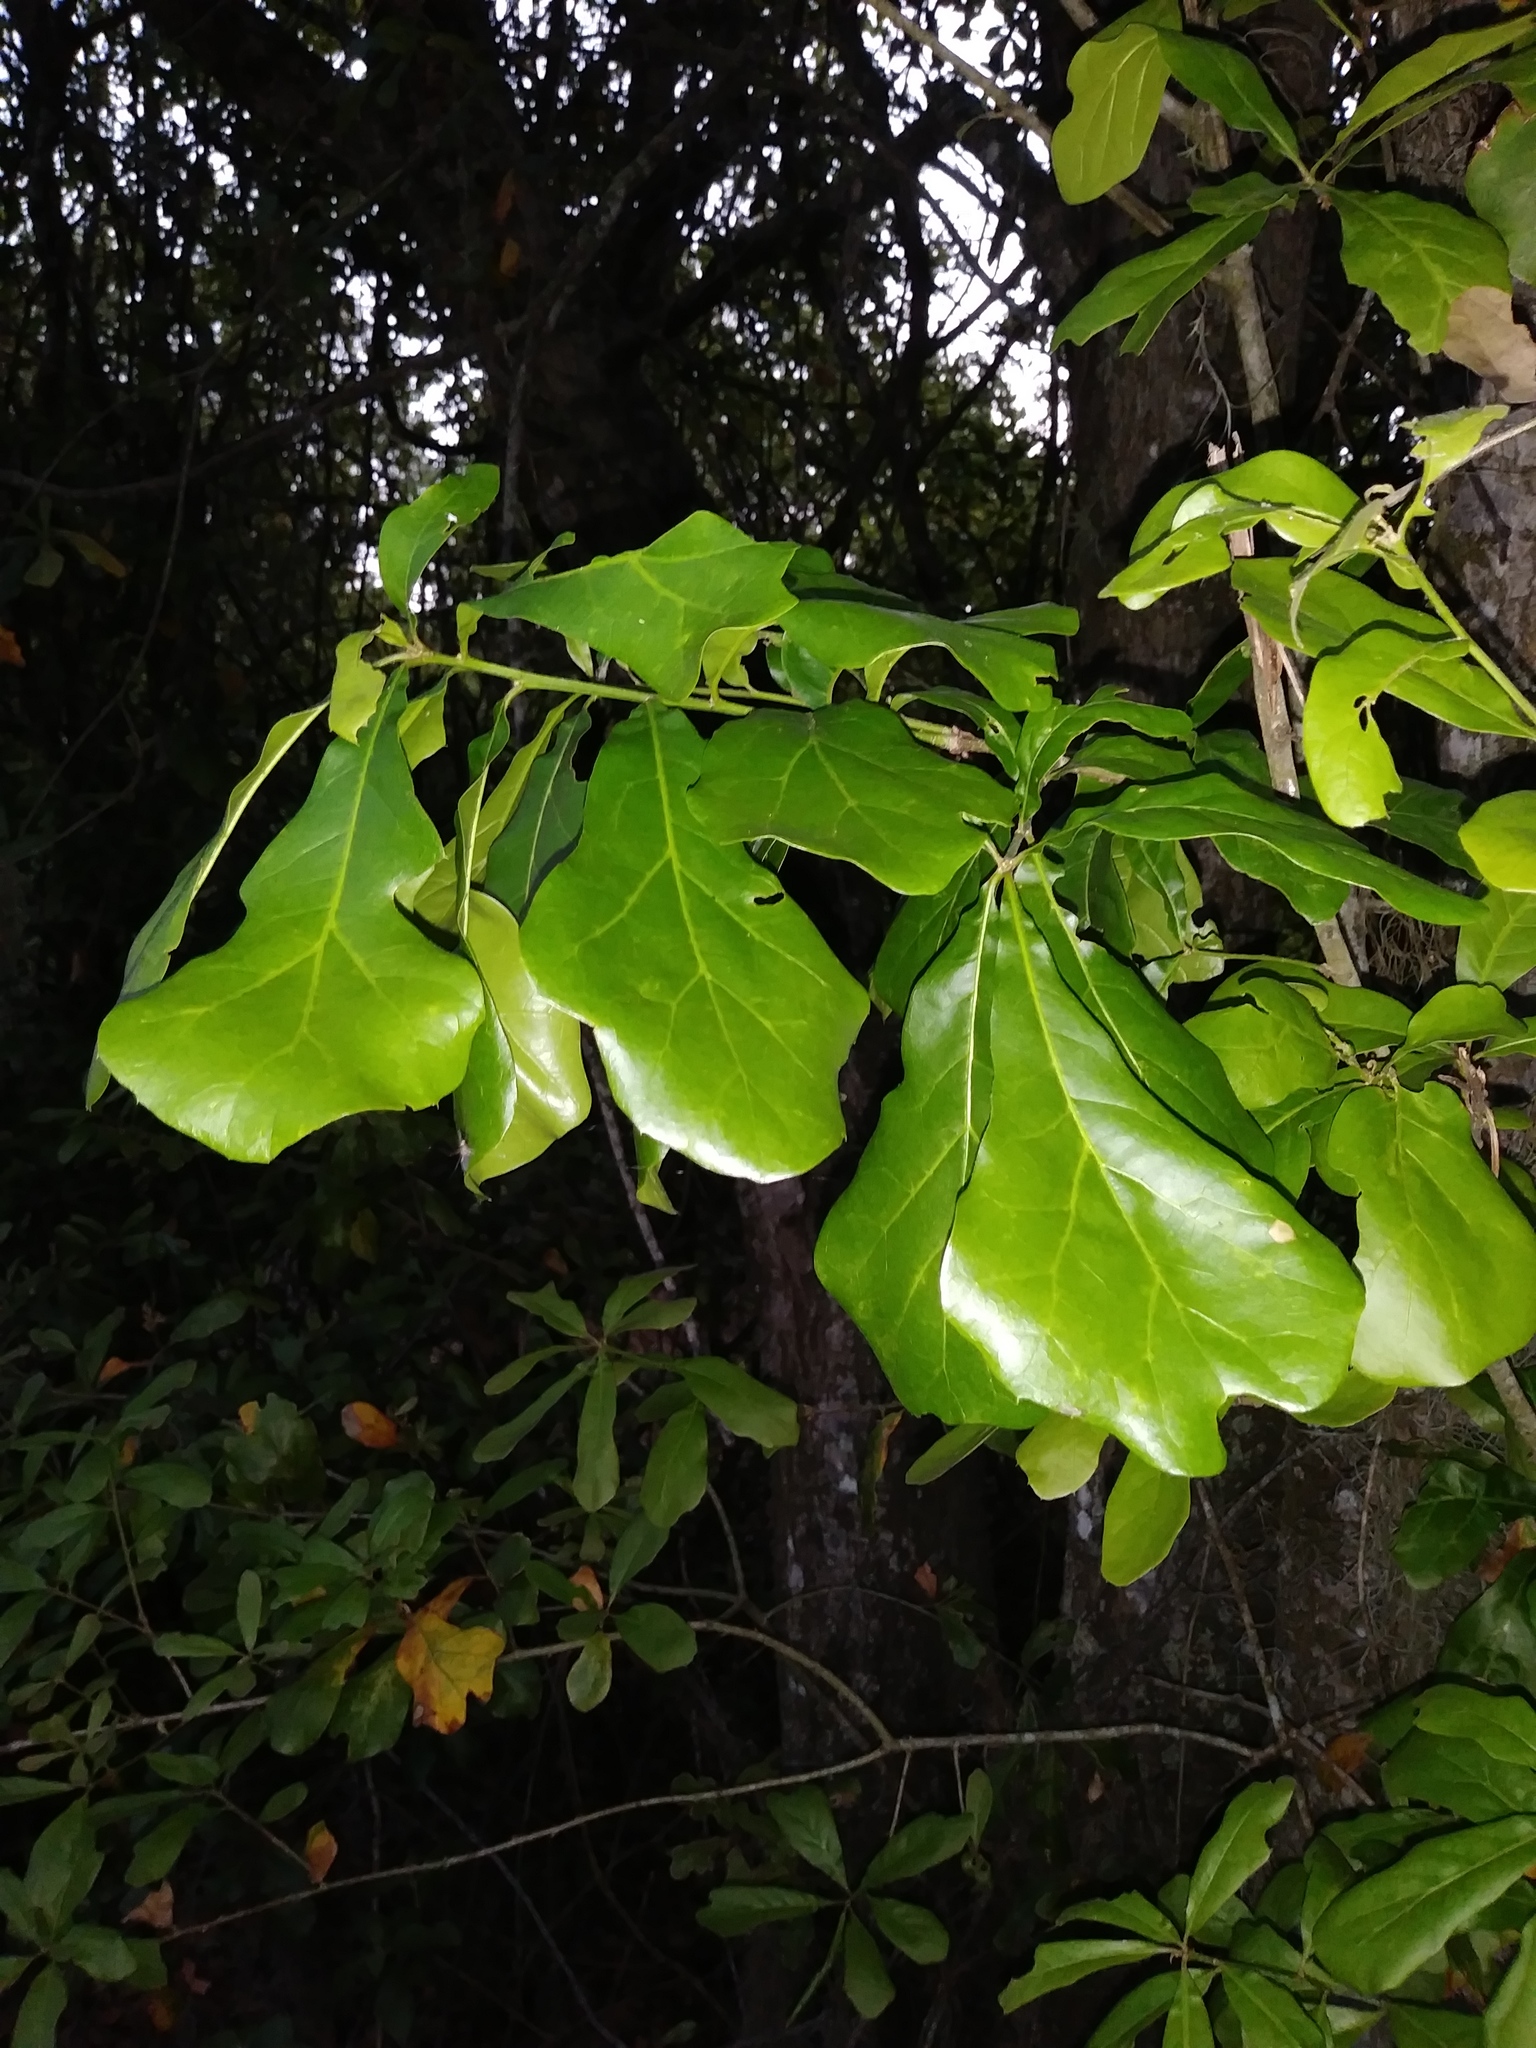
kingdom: Plantae
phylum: Tracheophyta
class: Magnoliopsida
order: Fagales
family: Fagaceae
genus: Quercus
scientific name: Quercus nigra
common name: Water oak
